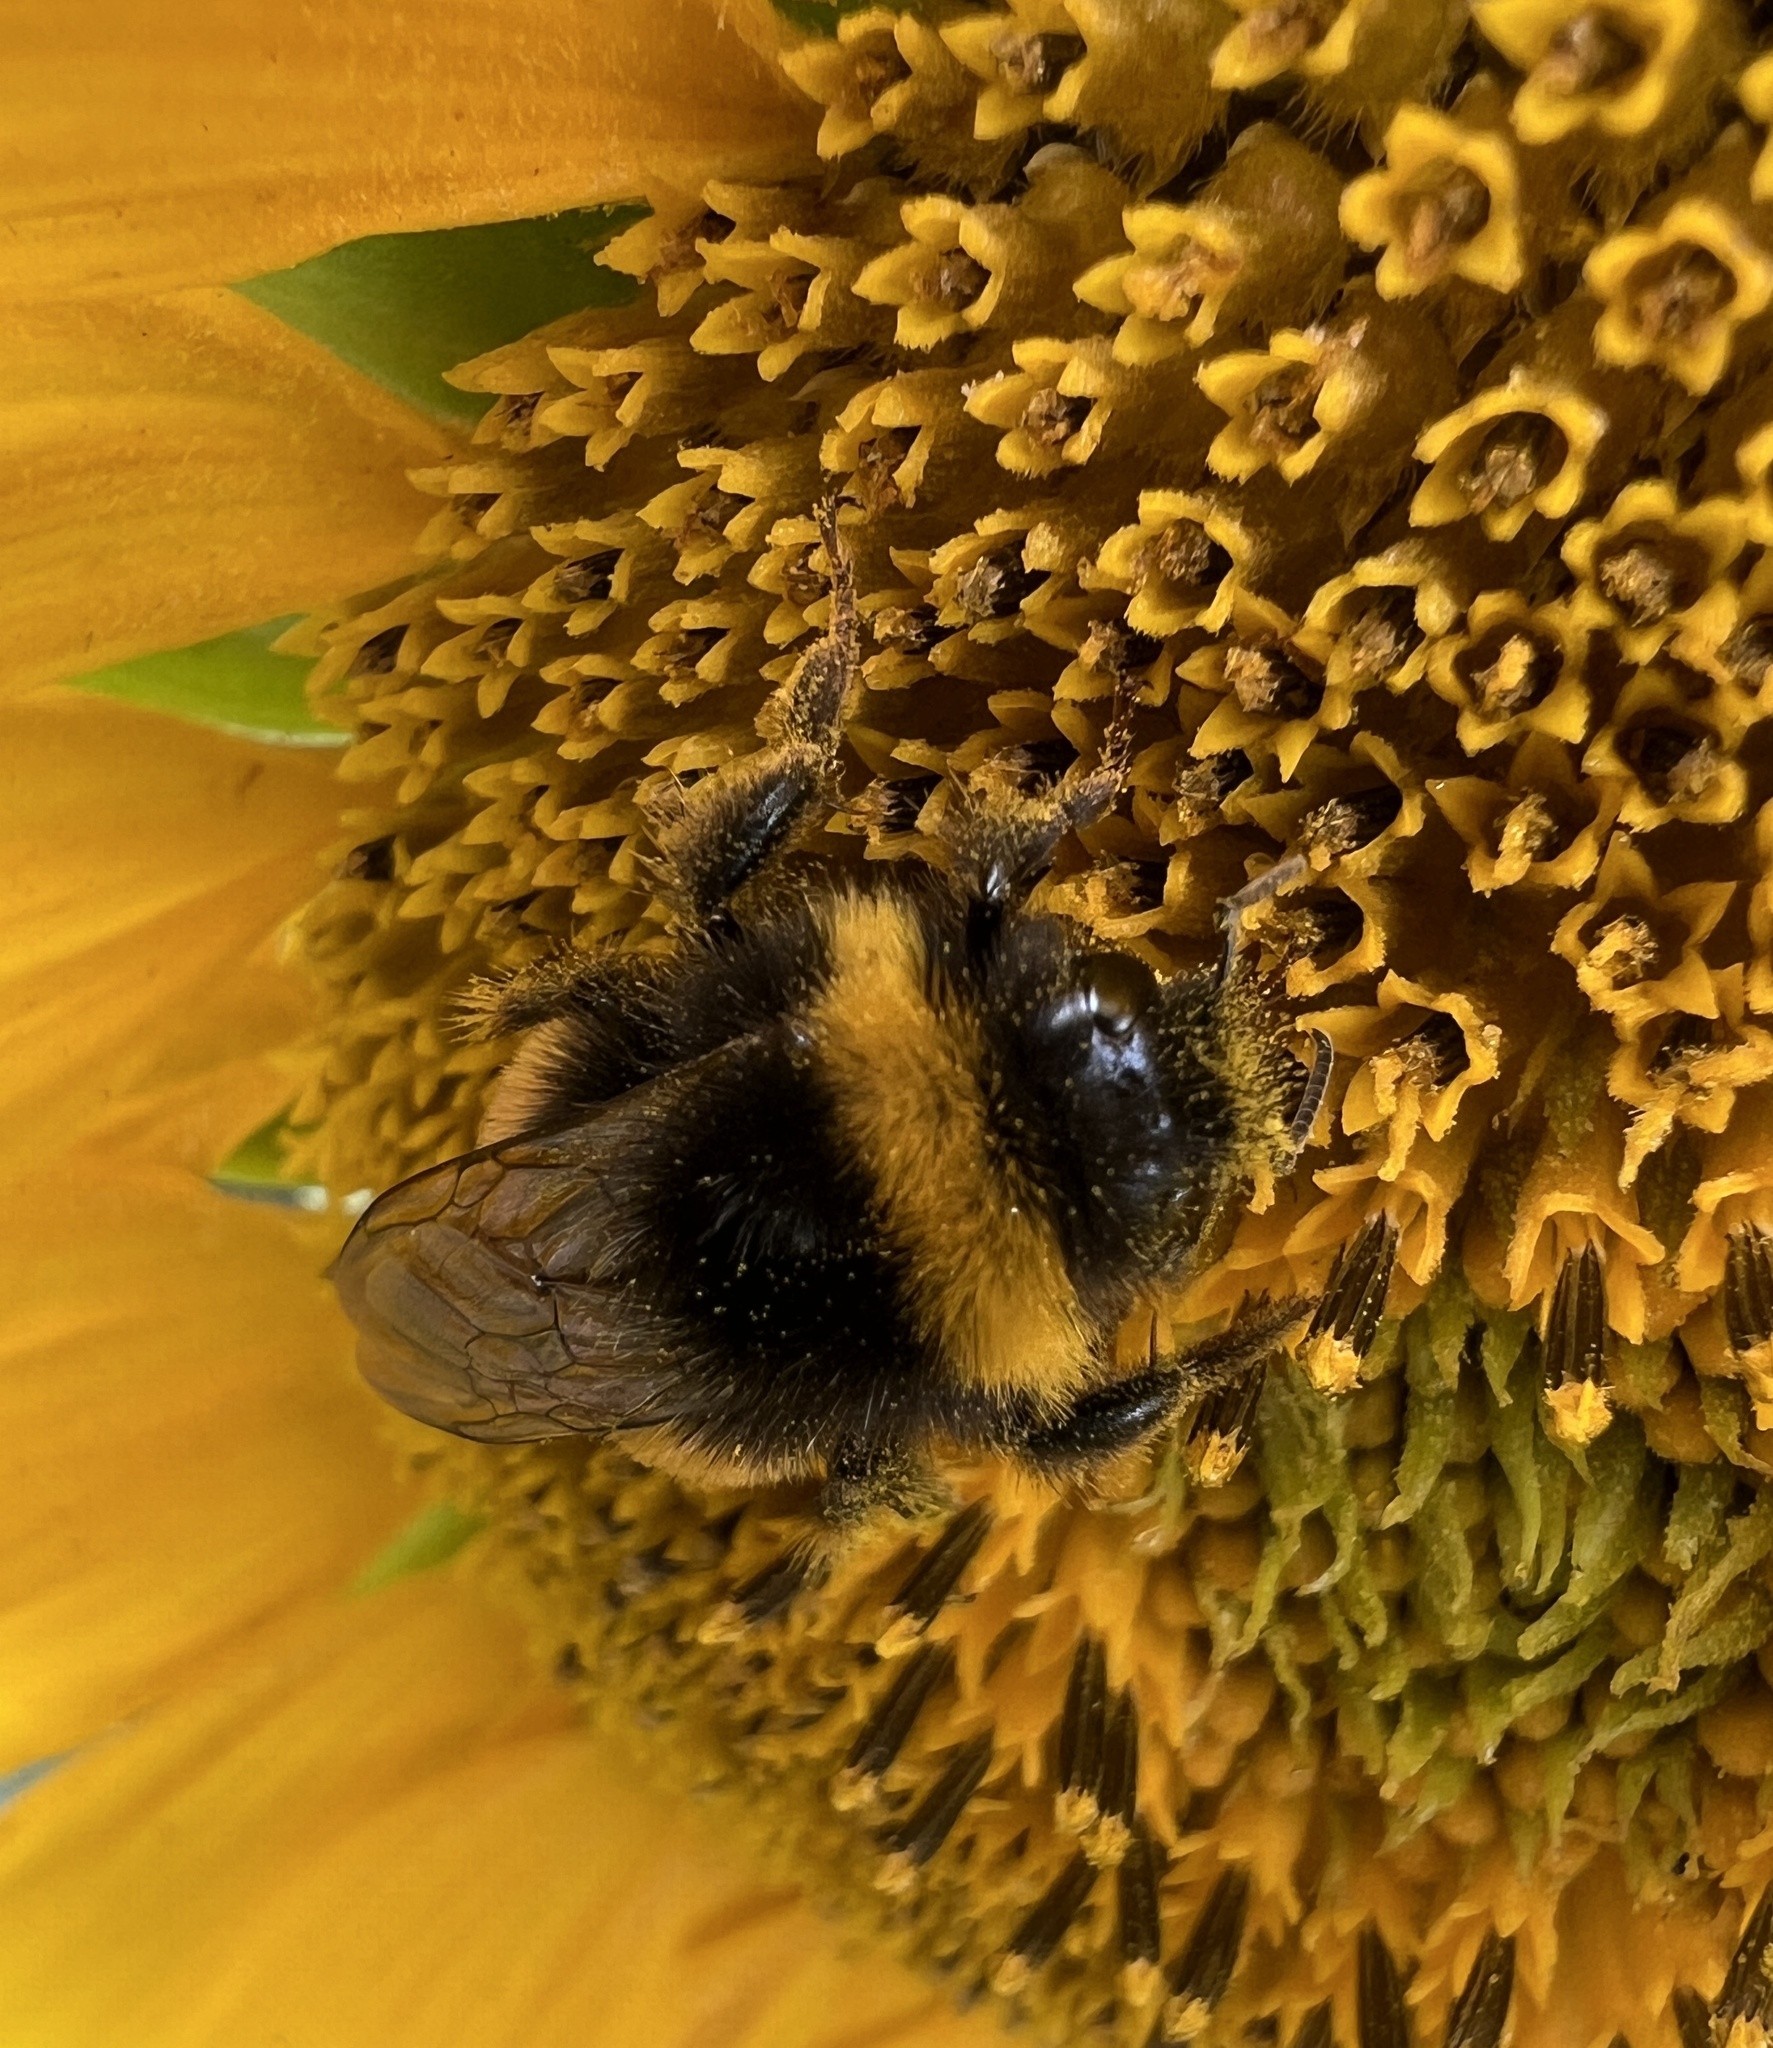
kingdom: Animalia
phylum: Arthropoda
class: Insecta
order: Hymenoptera
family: Apidae
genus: Bombus
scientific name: Bombus terrestris
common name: Buff-tailed bumblebee
